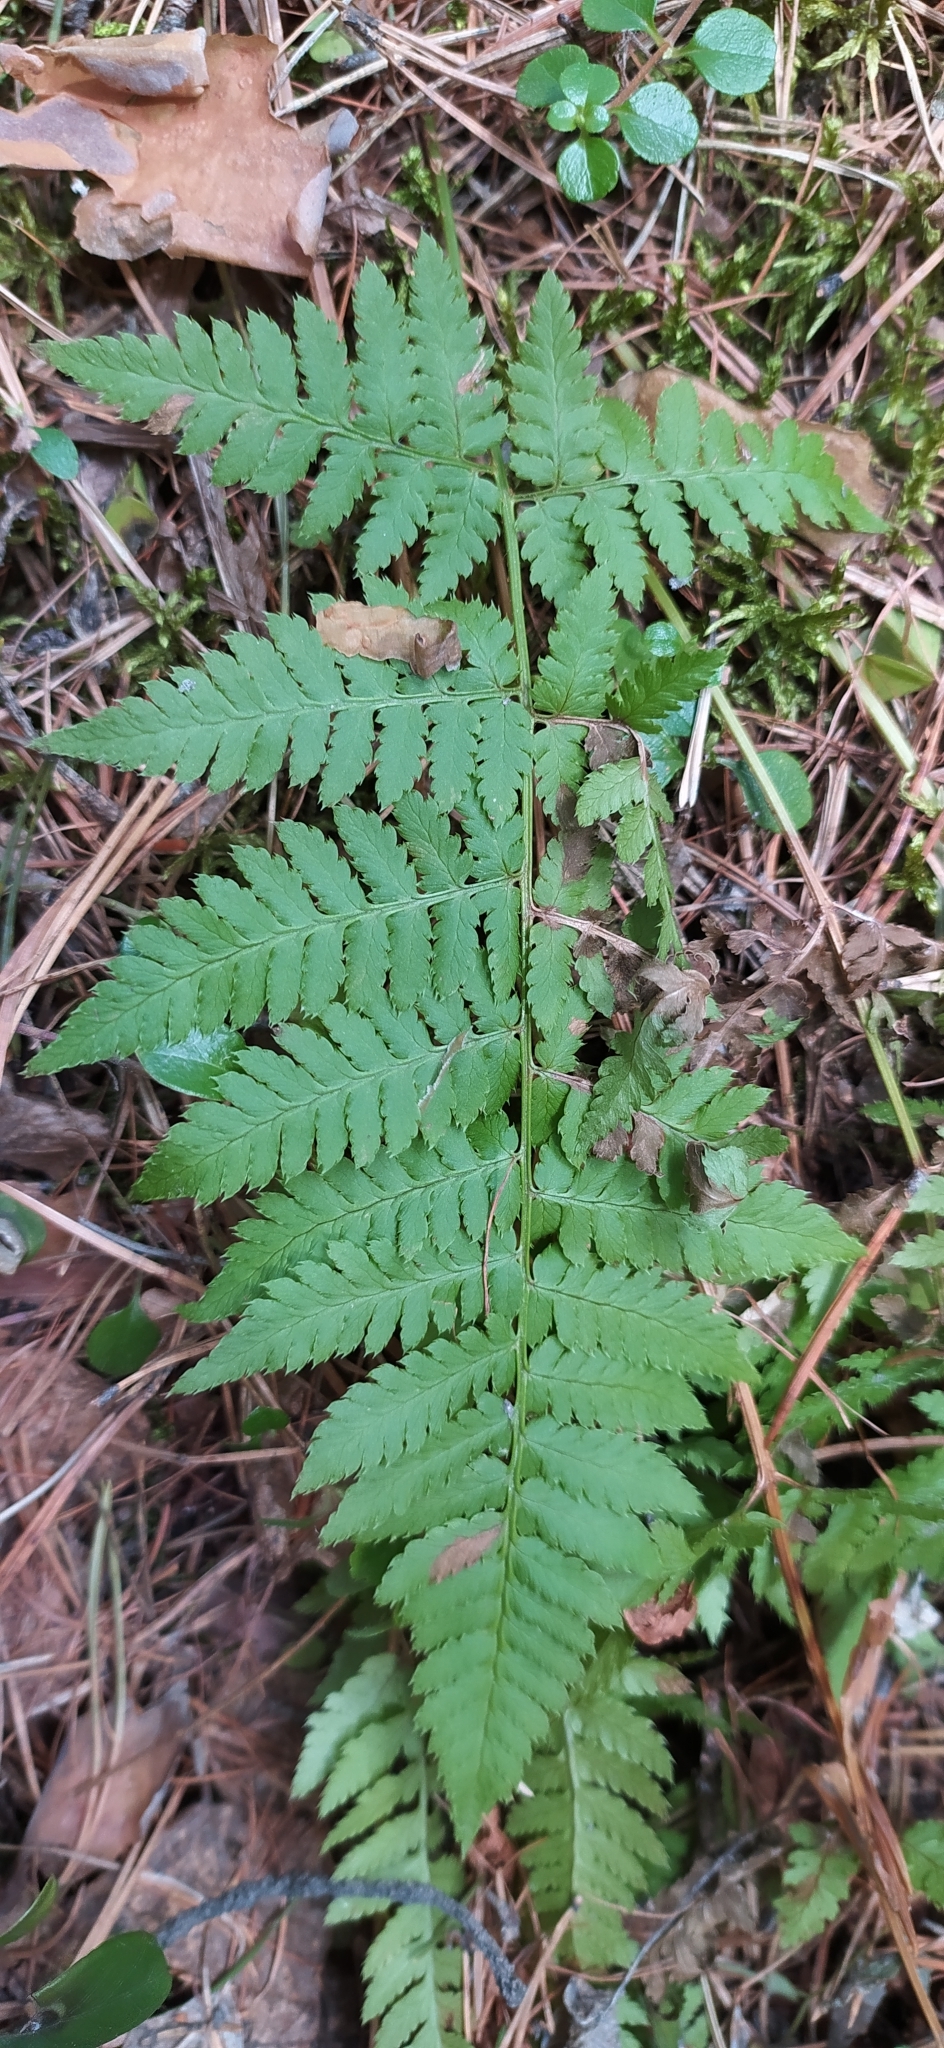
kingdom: Plantae
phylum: Tracheophyta
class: Polypodiopsida
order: Polypodiales
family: Dryopteridaceae
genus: Dryopteris
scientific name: Dryopteris carthusiana
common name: Narrow buckler-fern
